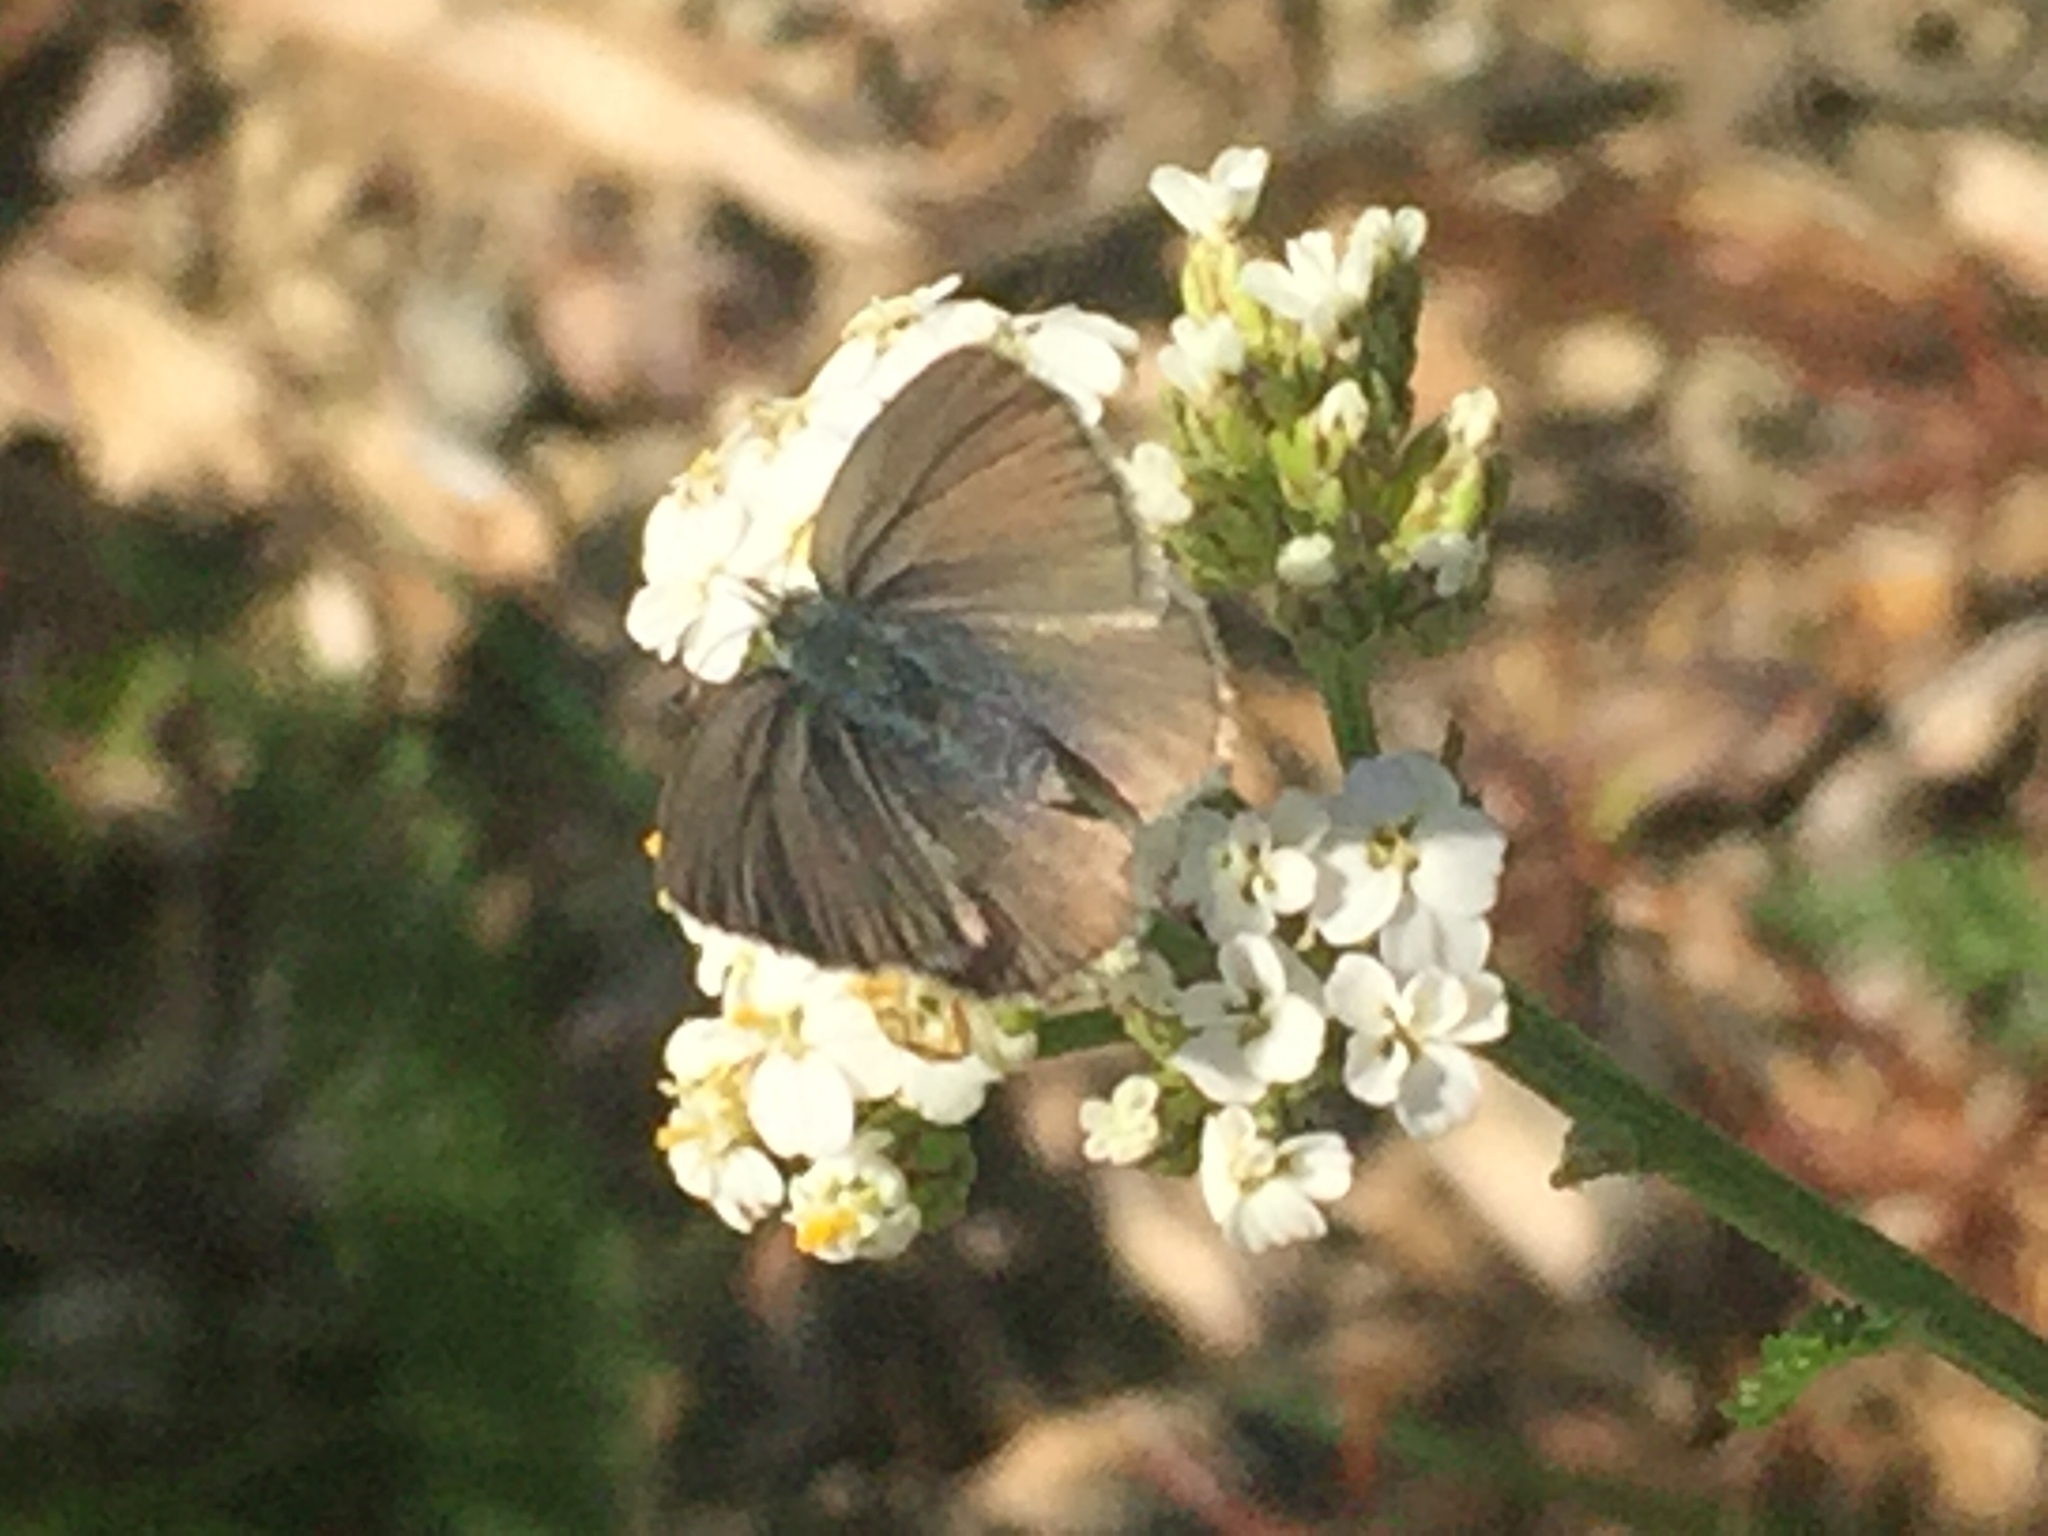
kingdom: Animalia
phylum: Arthropoda
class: Insecta
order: Lepidoptera
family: Lycaenidae
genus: Zizina
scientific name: Zizina labradus
